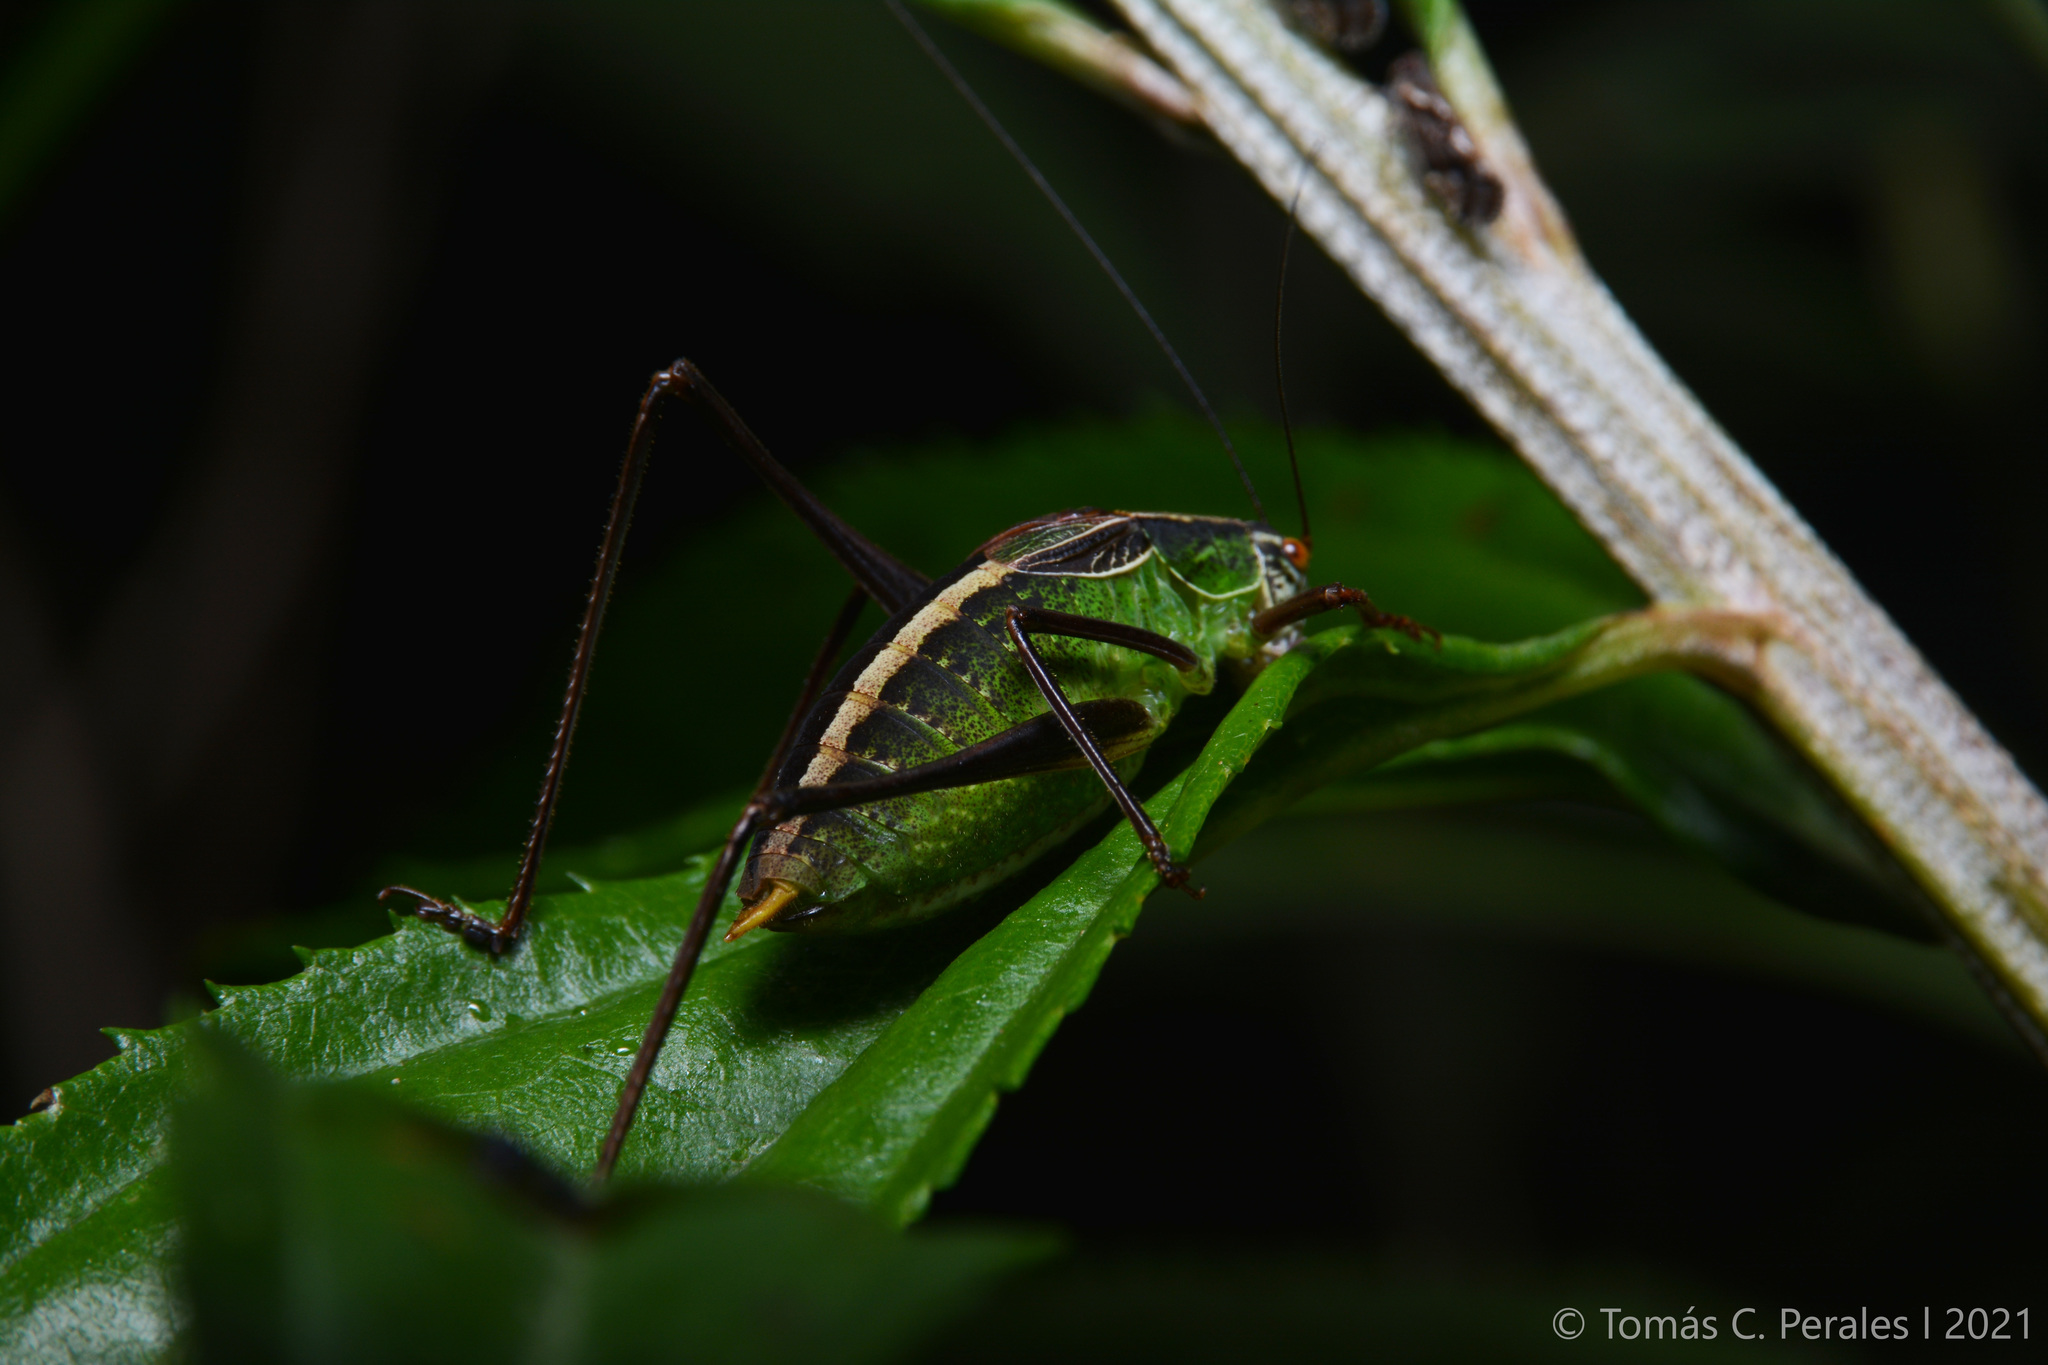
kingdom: Animalia
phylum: Arthropoda
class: Insecta
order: Orthoptera
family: Tettigoniidae
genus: Anisophya
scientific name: Anisophya melanochloris
